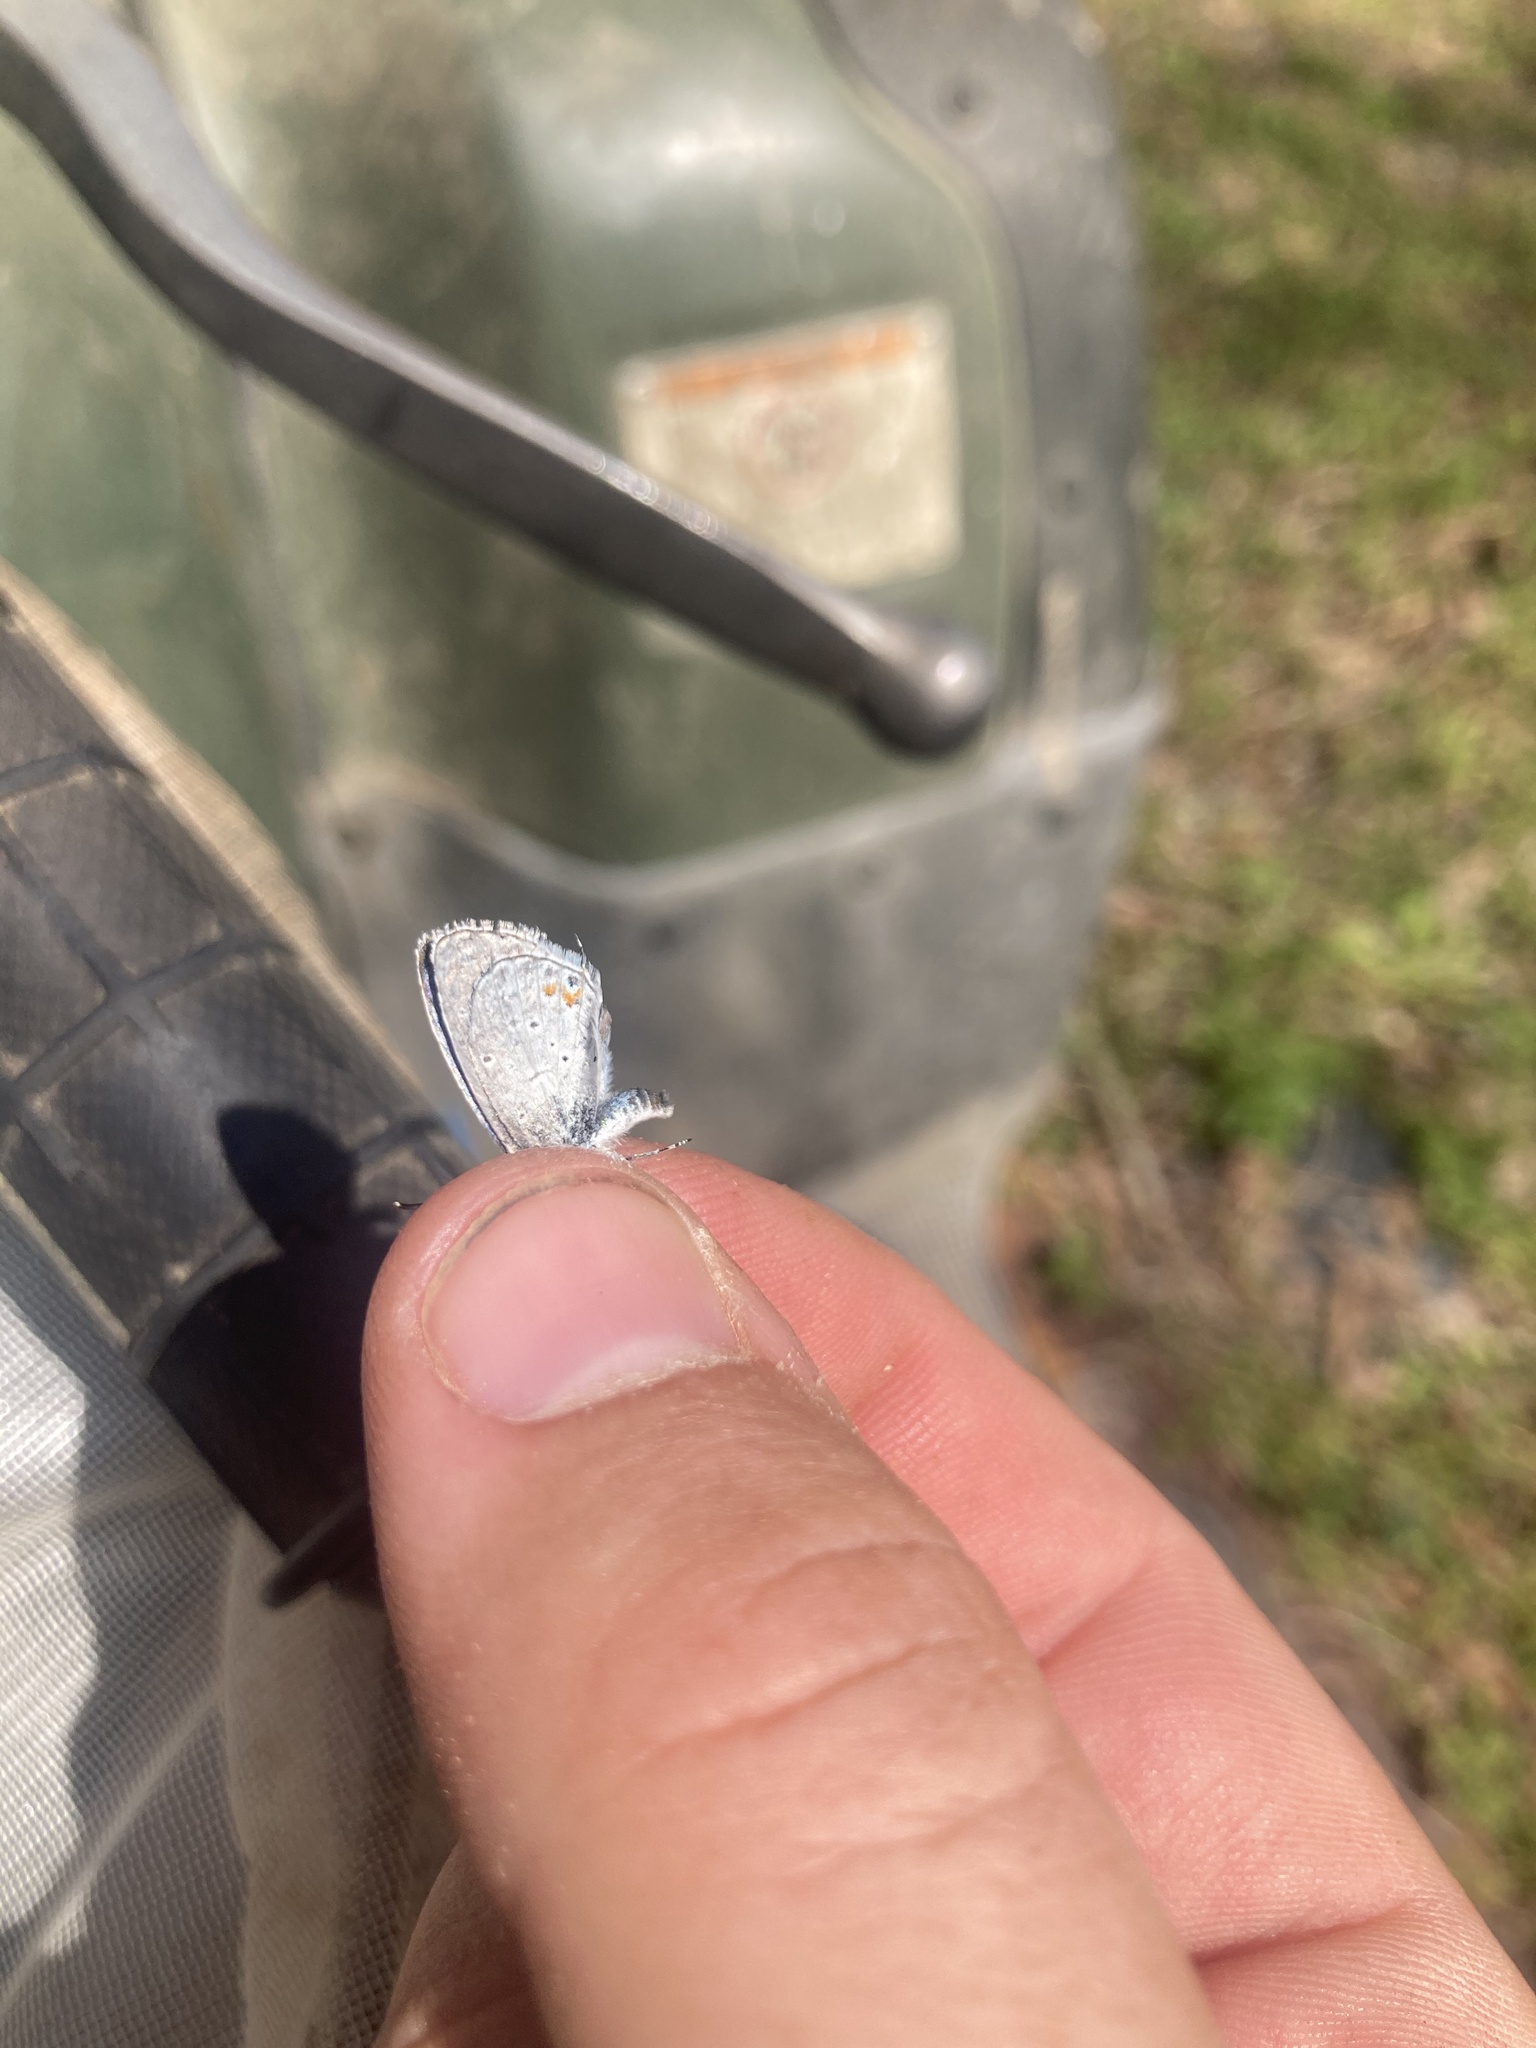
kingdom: Animalia
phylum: Arthropoda
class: Insecta
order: Lepidoptera
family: Lycaenidae
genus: Elkalyce
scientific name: Elkalyce comyntas
